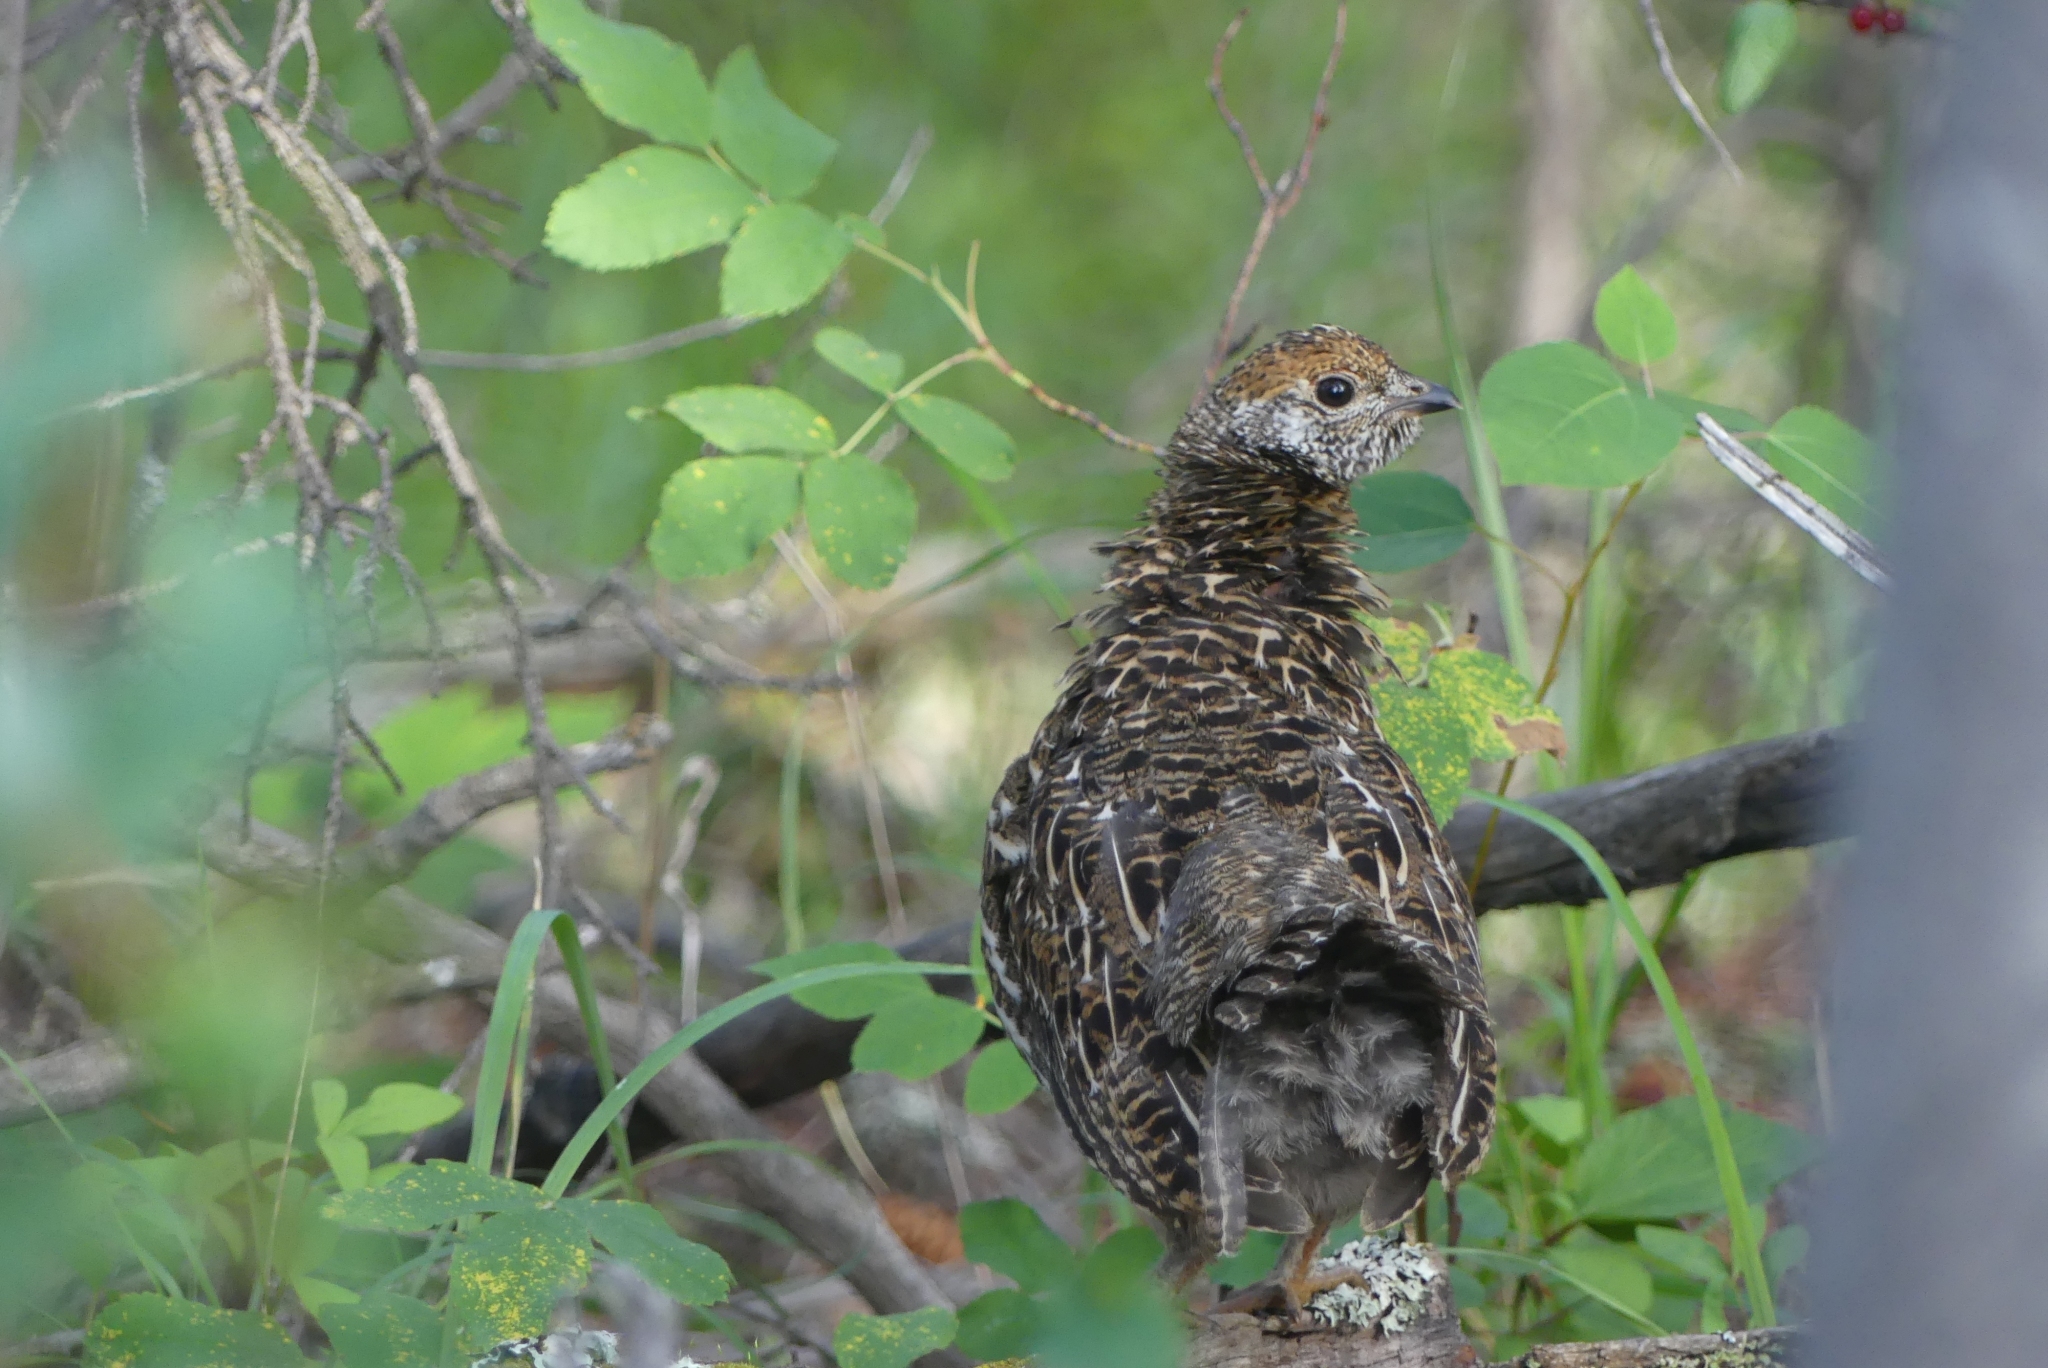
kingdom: Animalia
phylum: Chordata
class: Aves
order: Galliformes
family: Phasianidae
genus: Canachites
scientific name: Canachites canadensis
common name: Spruce grouse
